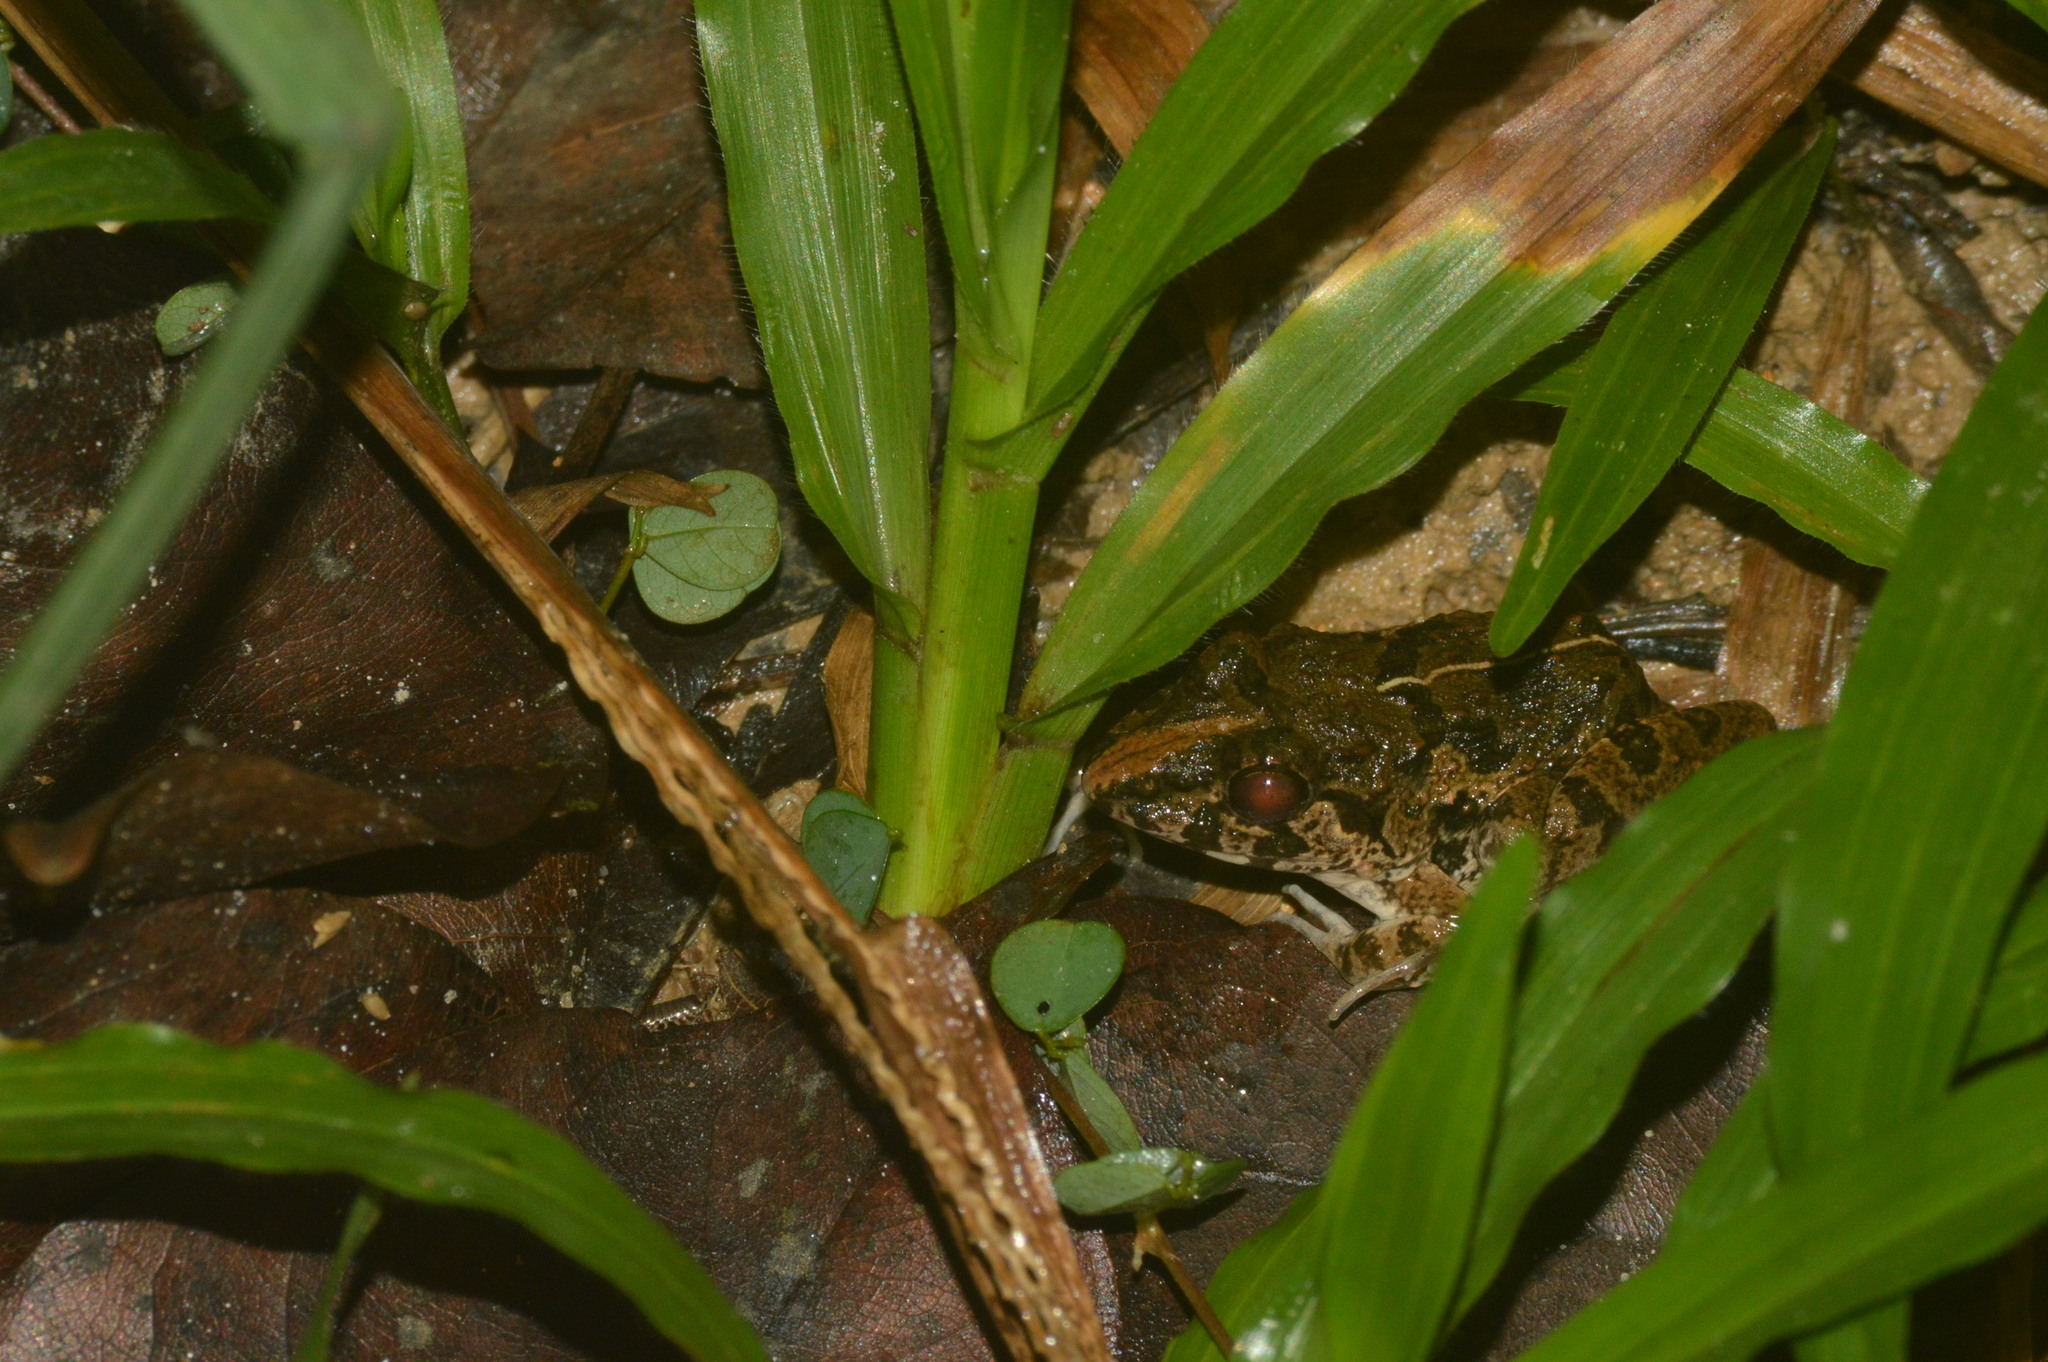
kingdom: Animalia
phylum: Chordata
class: Amphibia
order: Anura
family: Dicroglossidae
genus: Fejervarya
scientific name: Fejervarya limnocharis
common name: Asian grass frog/common pond frog/field frog/grass frog/indian rice frog
